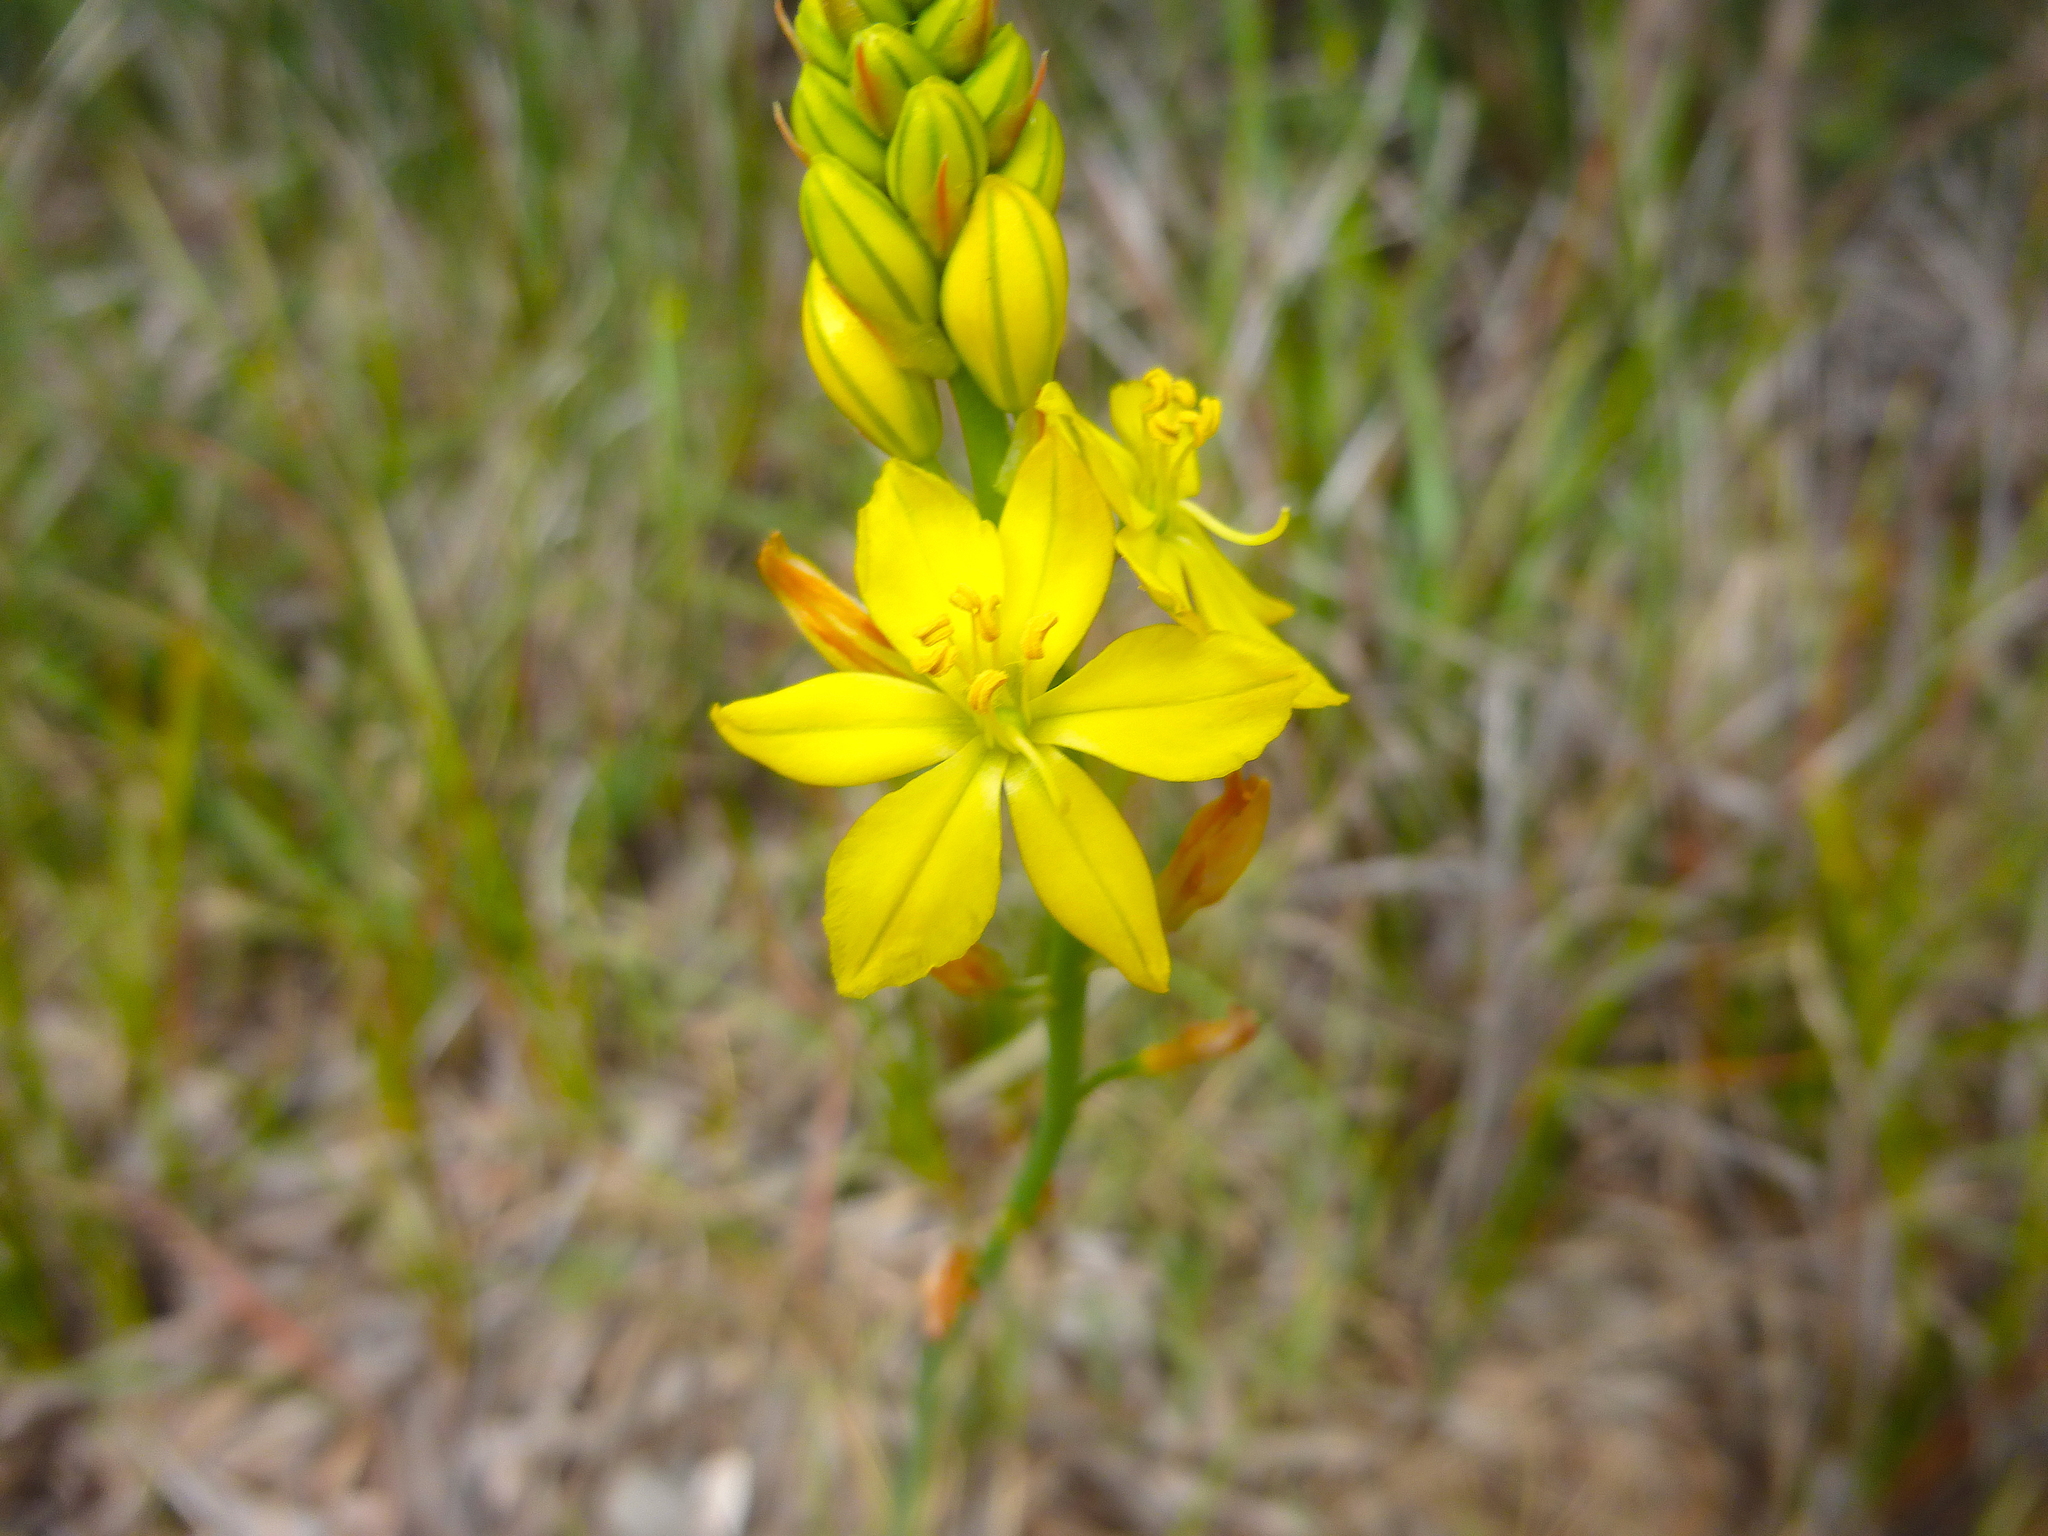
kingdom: Plantae
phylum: Tracheophyta
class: Liliopsida
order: Asparagales
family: Asphodelaceae
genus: Bulbine
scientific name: Bulbine bulbosa
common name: Golden-lily
